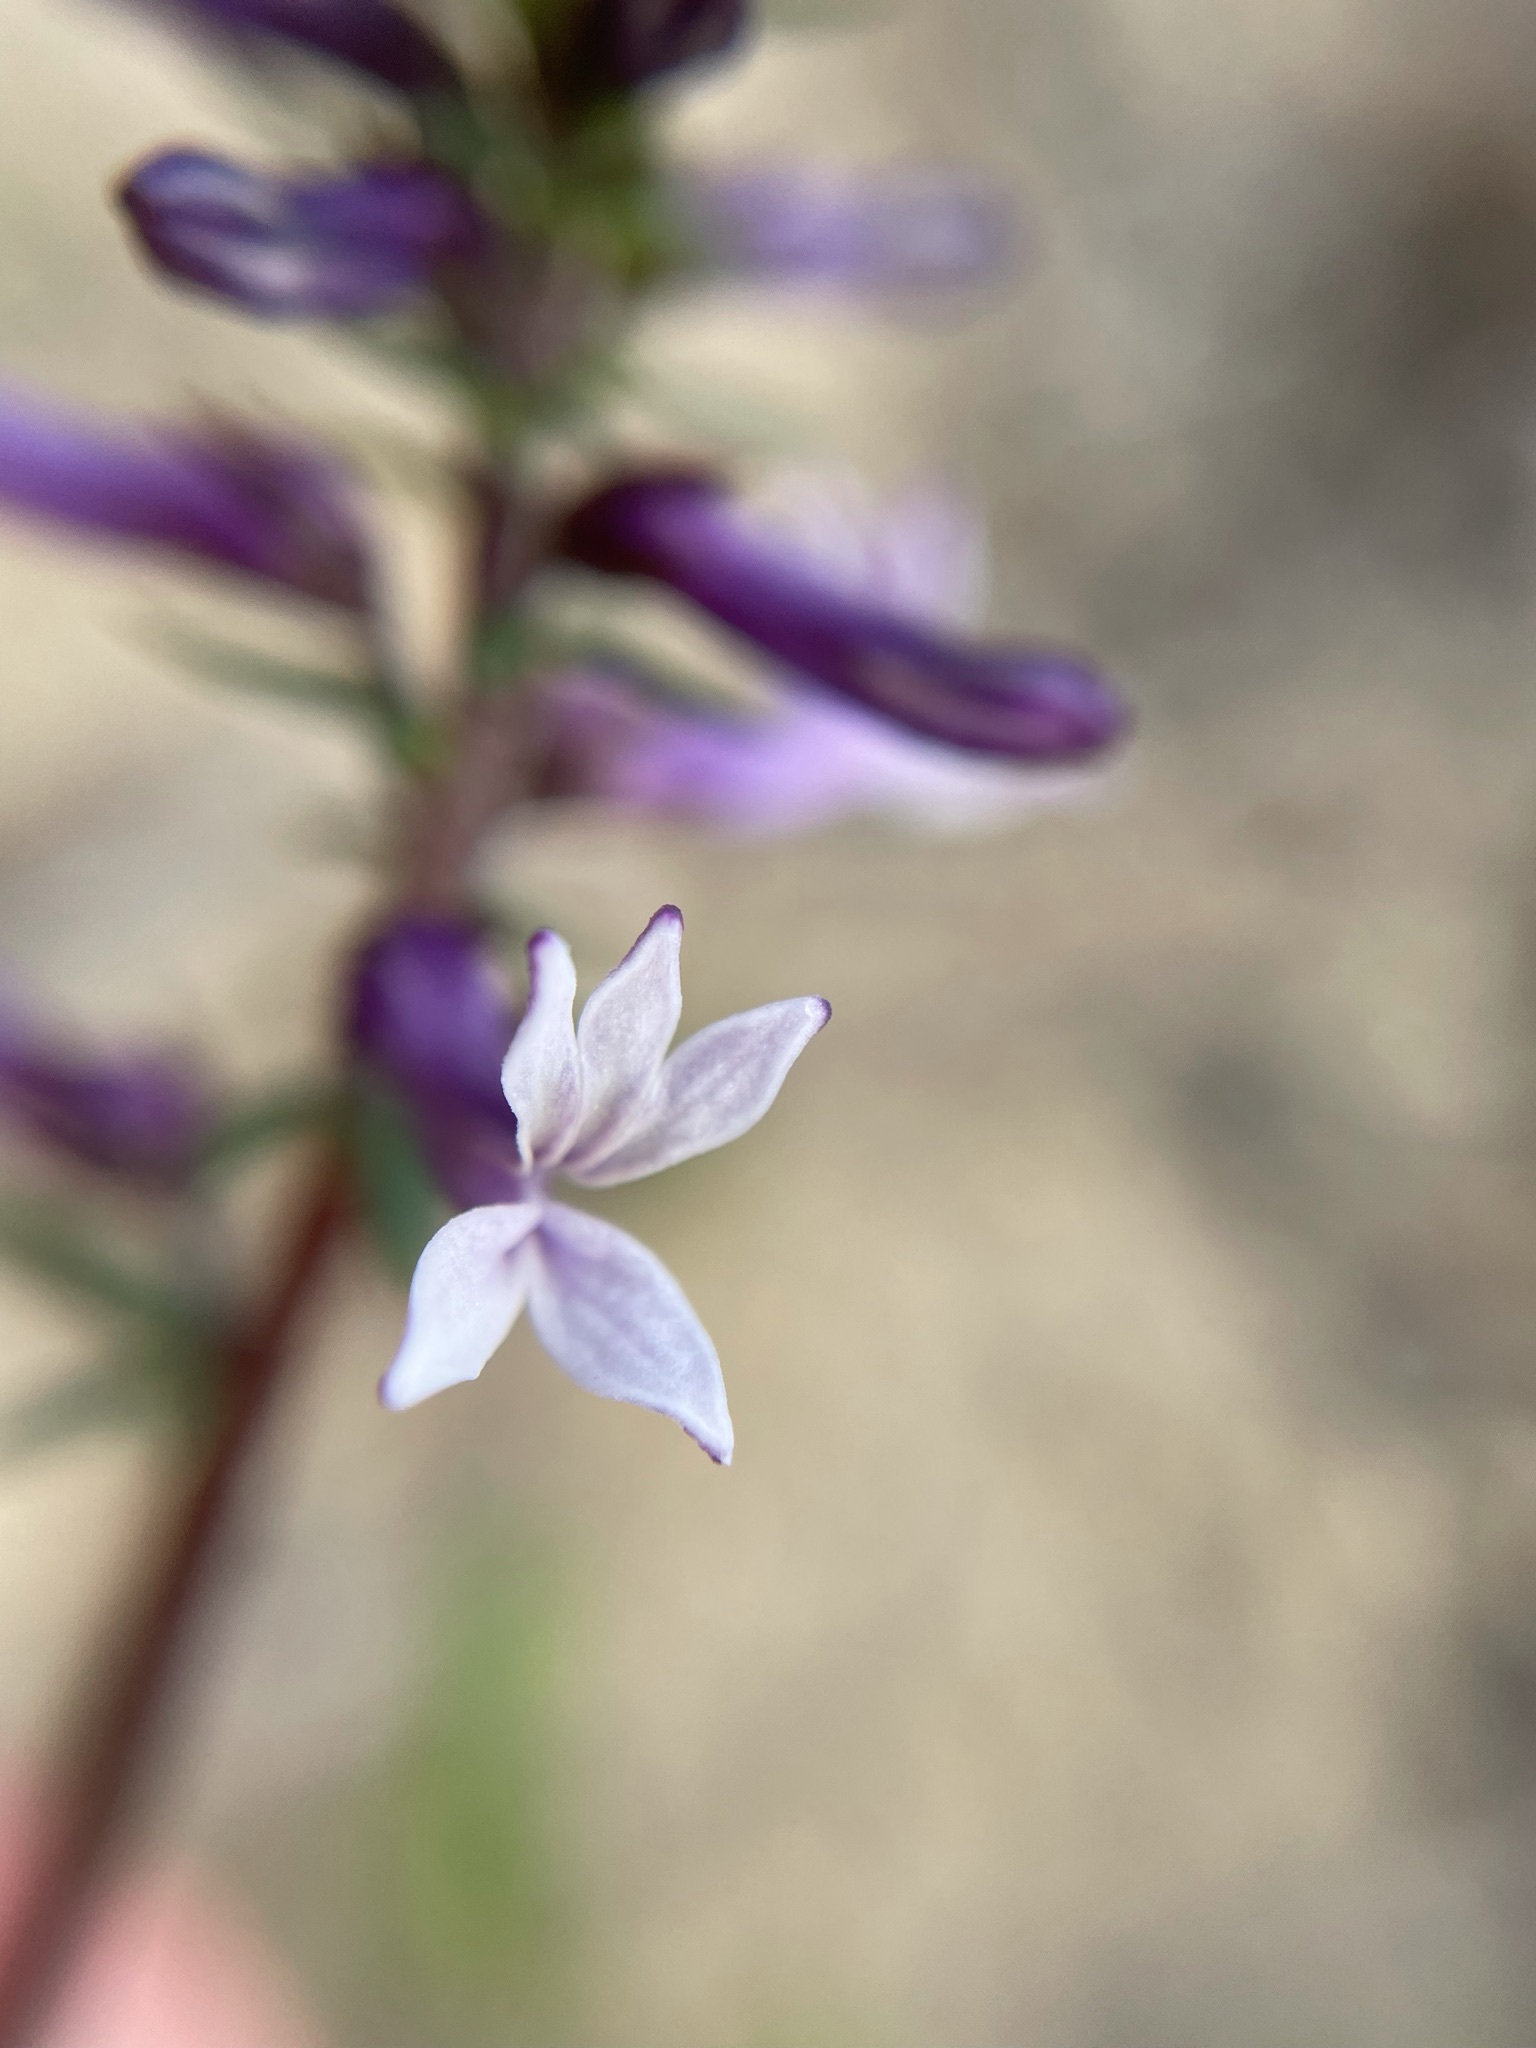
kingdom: Plantae
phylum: Tracheophyta
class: Magnoliopsida
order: Asterales
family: Campanulaceae
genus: Cyphia
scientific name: Cyphia bulbosa
